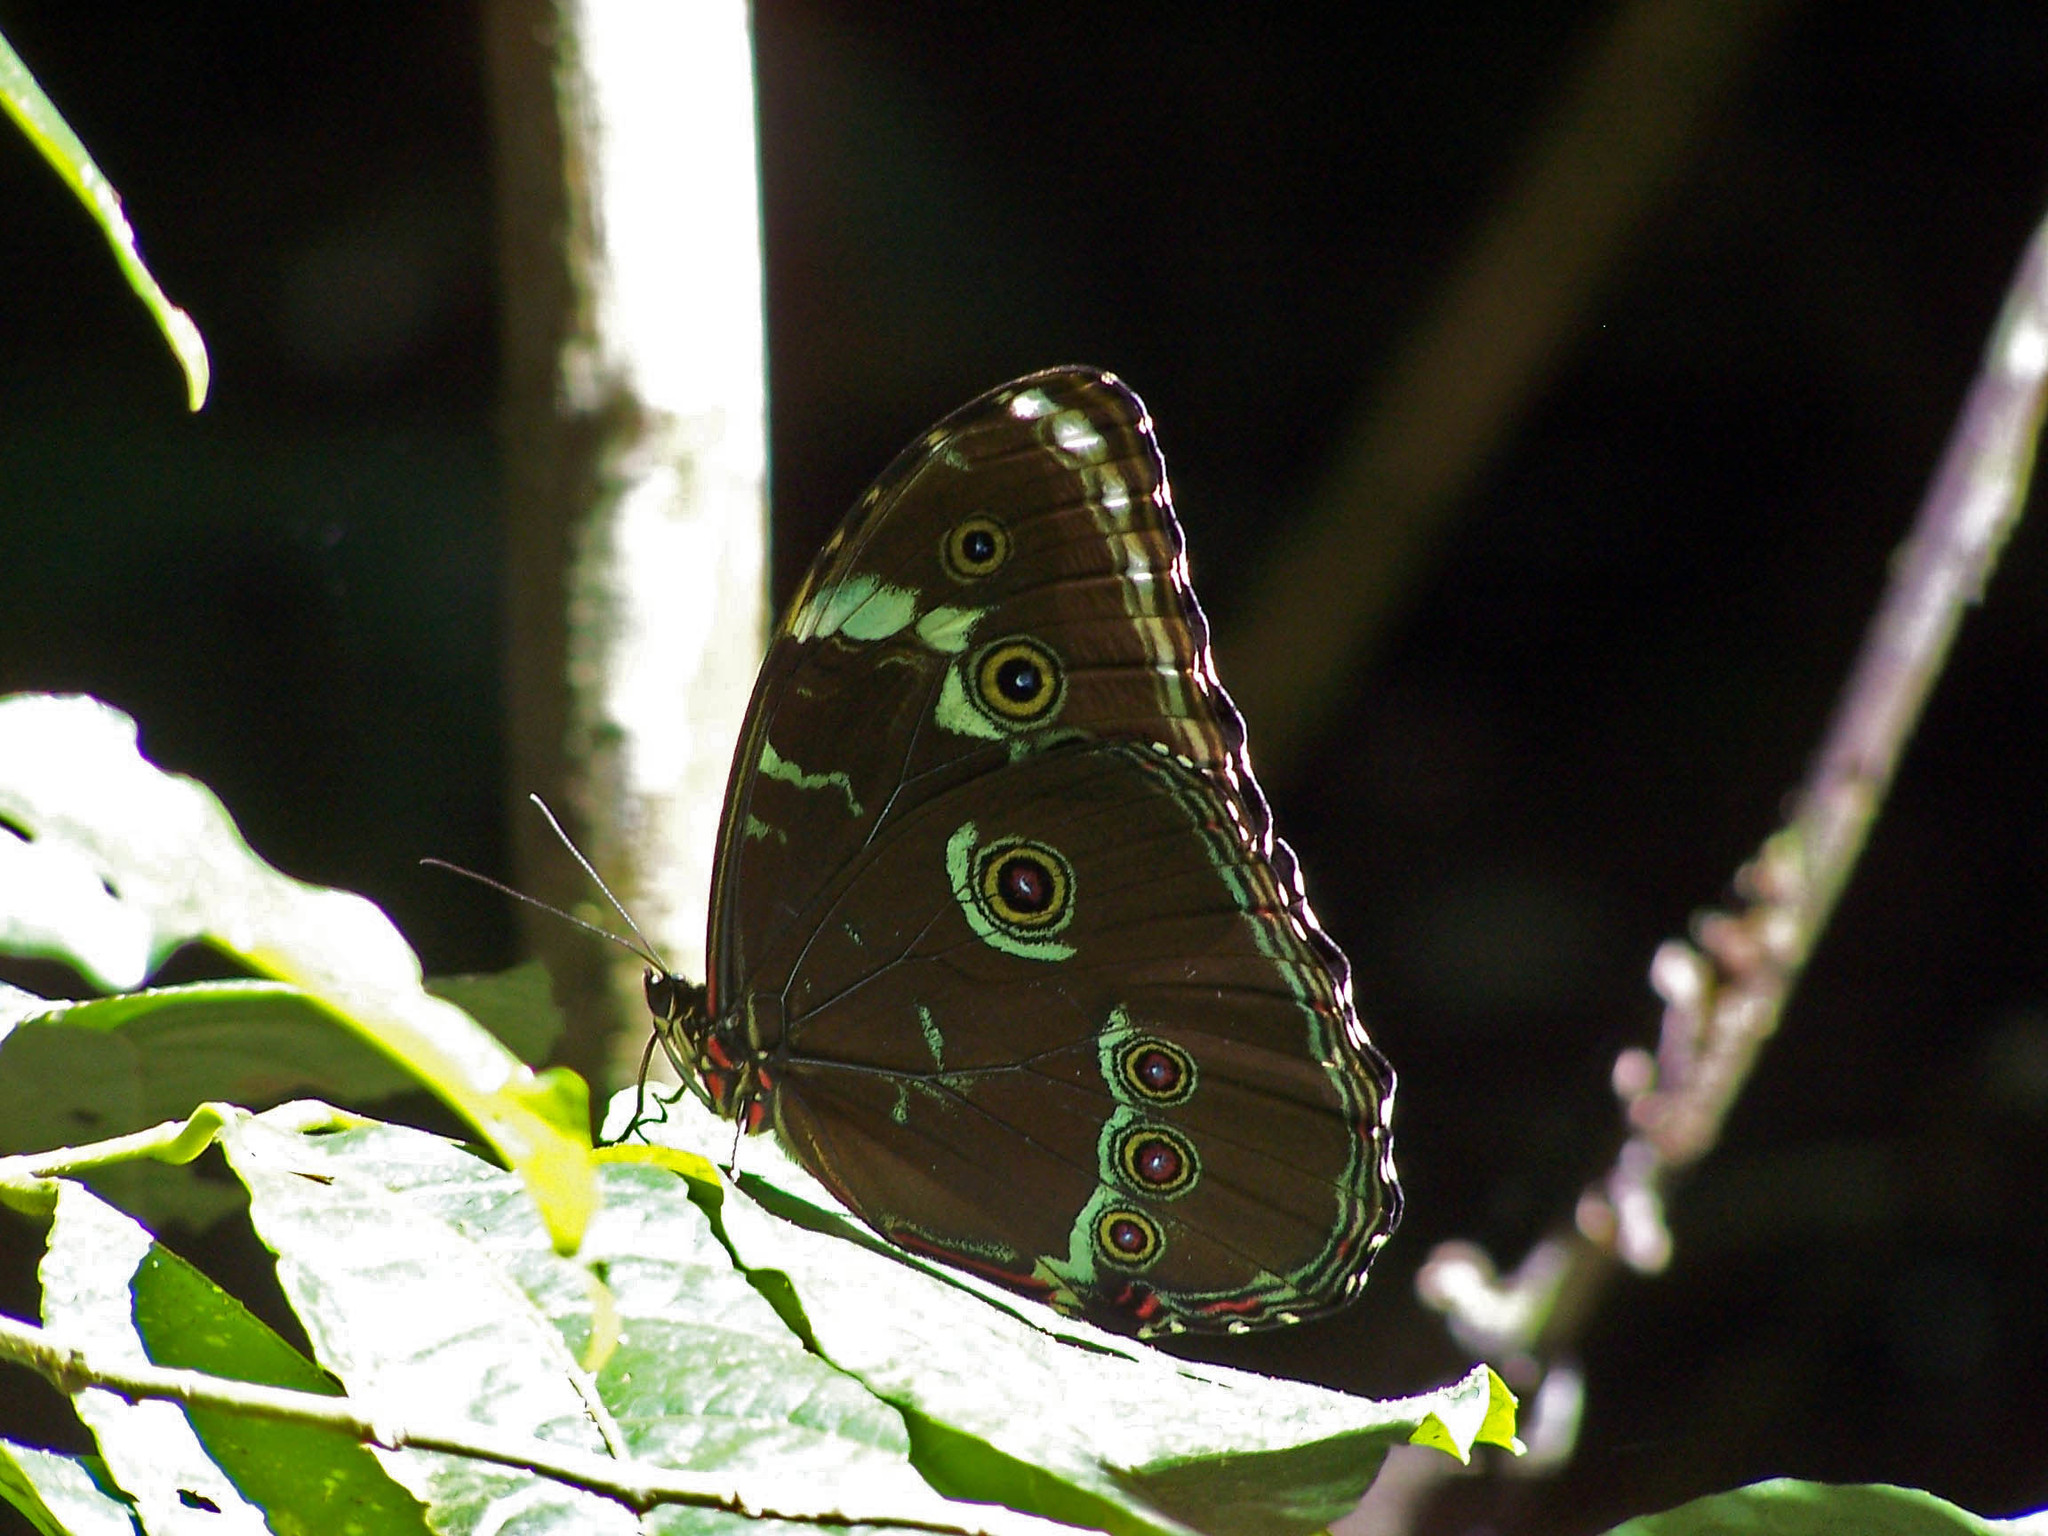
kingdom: Animalia
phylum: Arthropoda
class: Insecta
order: Lepidoptera
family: Nymphalidae
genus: Morpho
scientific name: Morpho achilles
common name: Achilles morpho
